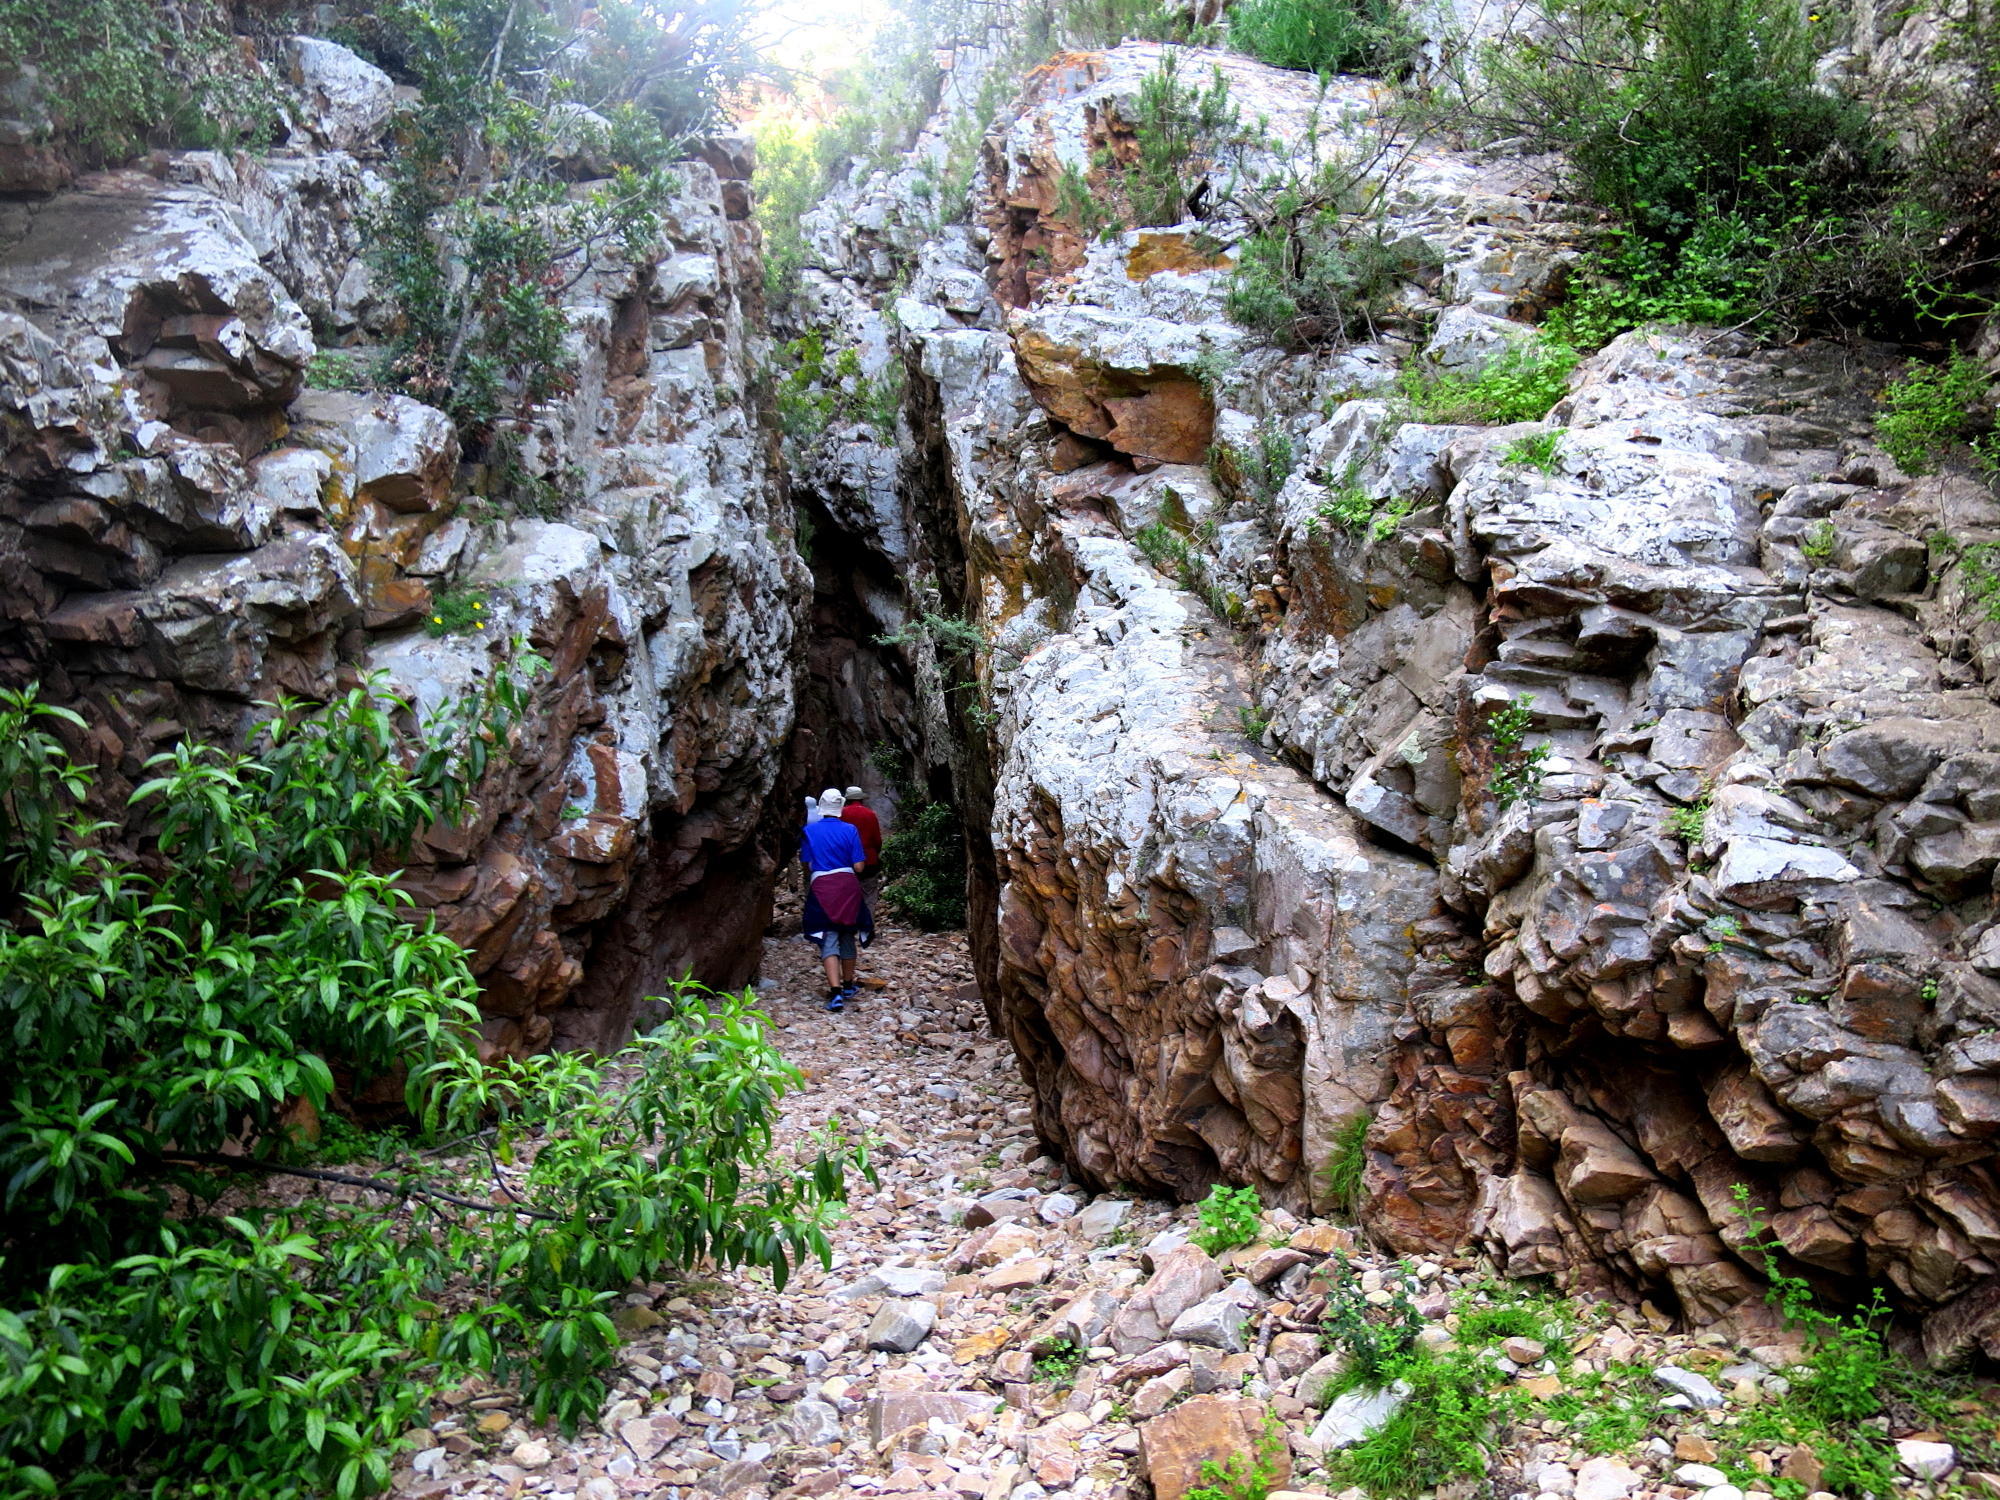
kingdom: Plantae
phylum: Tracheophyta
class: Magnoliopsida
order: Lamiales
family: Stilbaceae
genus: Nuxia
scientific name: Nuxia floribunda
